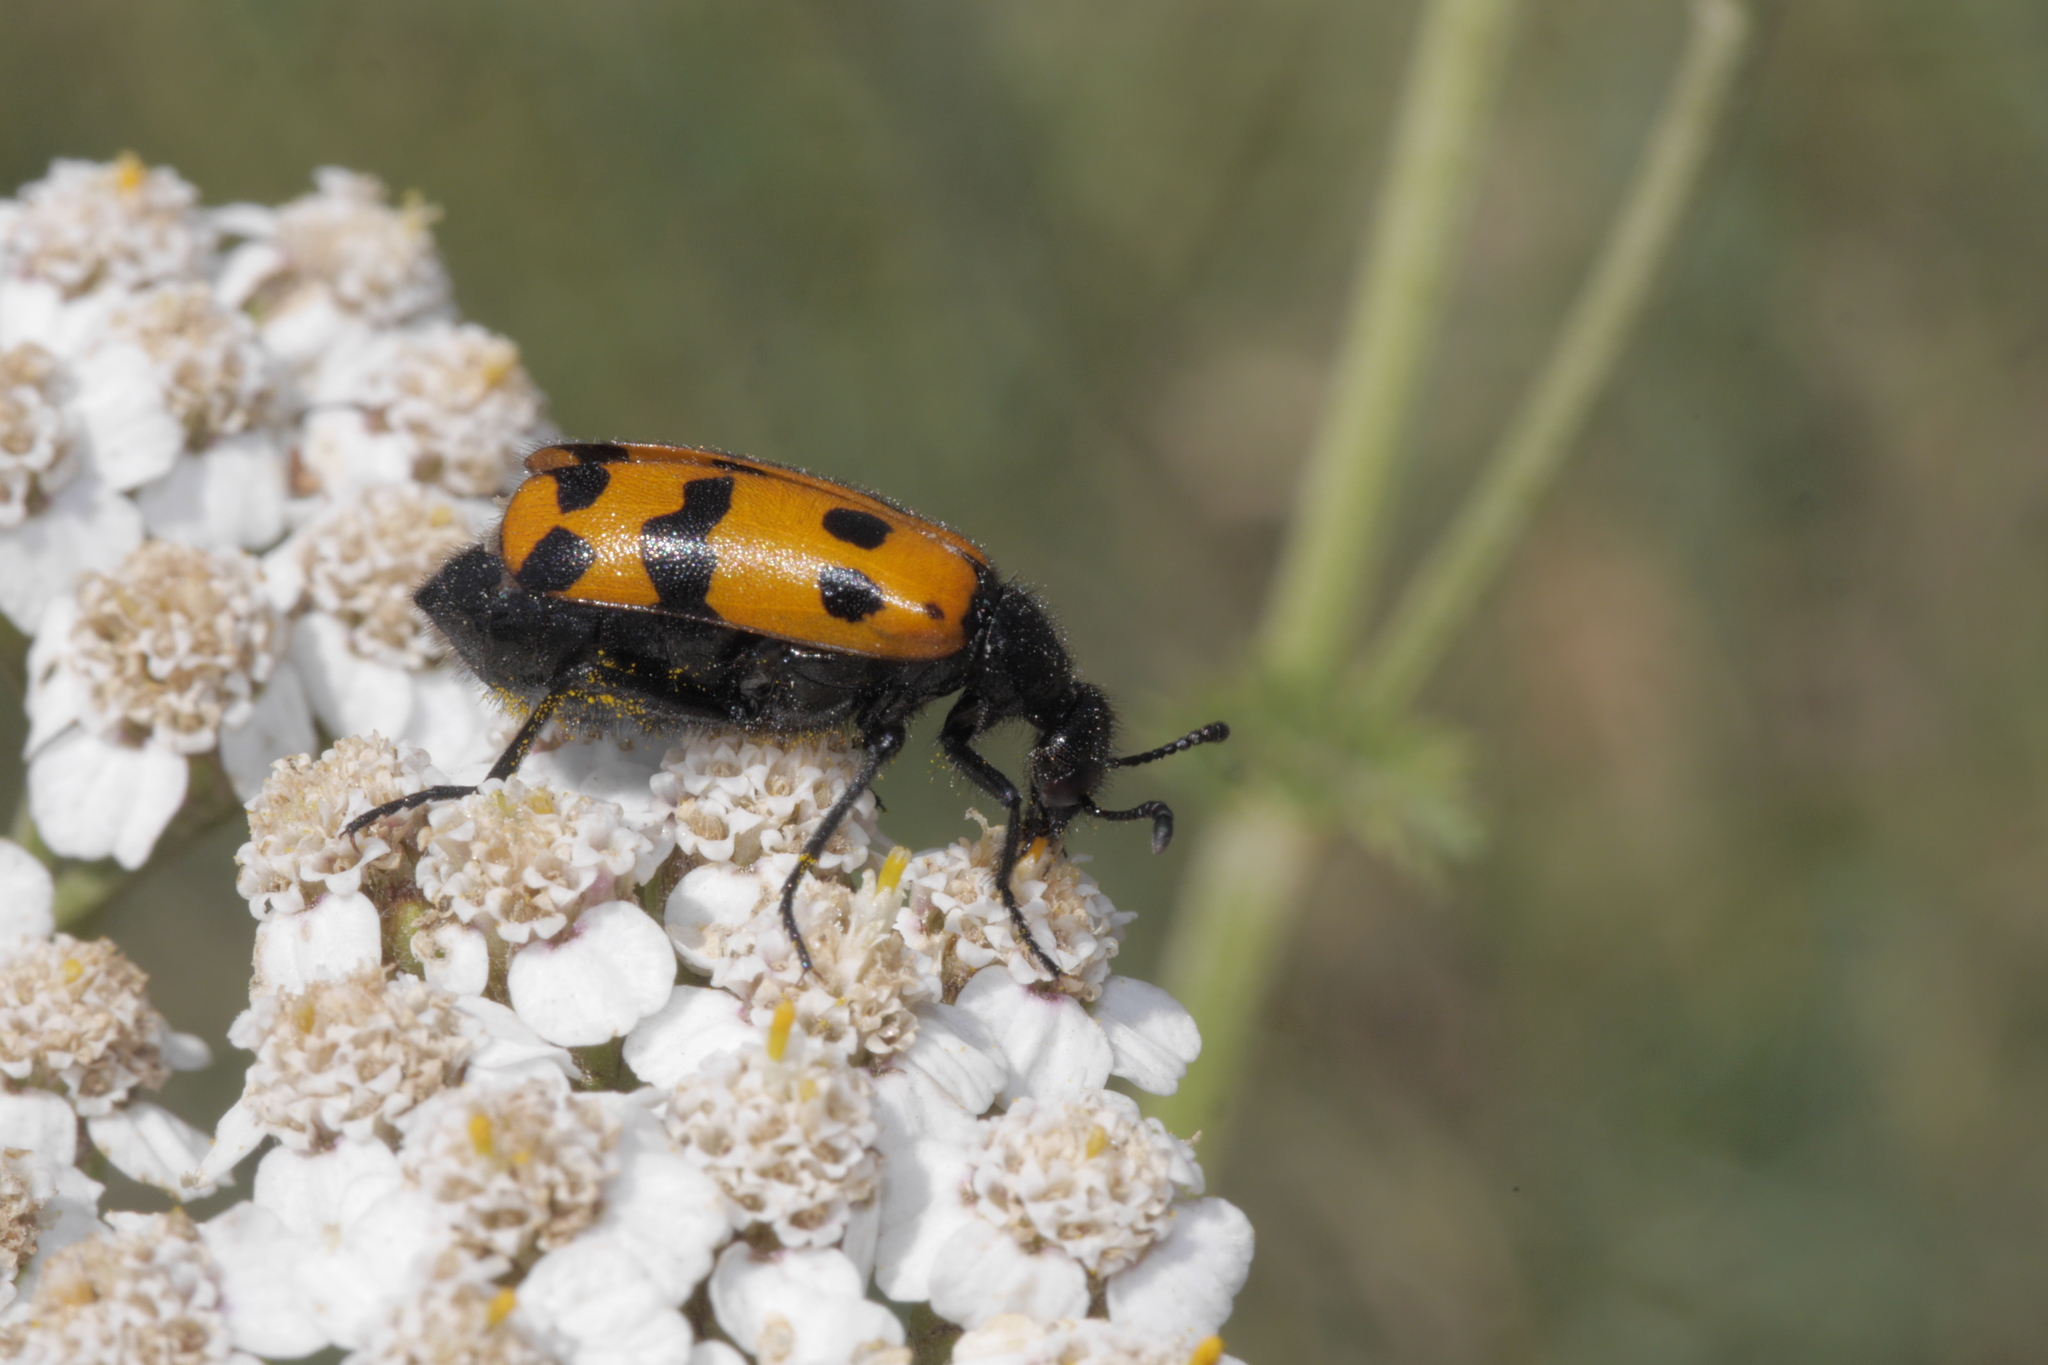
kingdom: Animalia
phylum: Arthropoda
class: Insecta
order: Coleoptera
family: Meloidae
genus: Mylabris
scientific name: Mylabris connata
